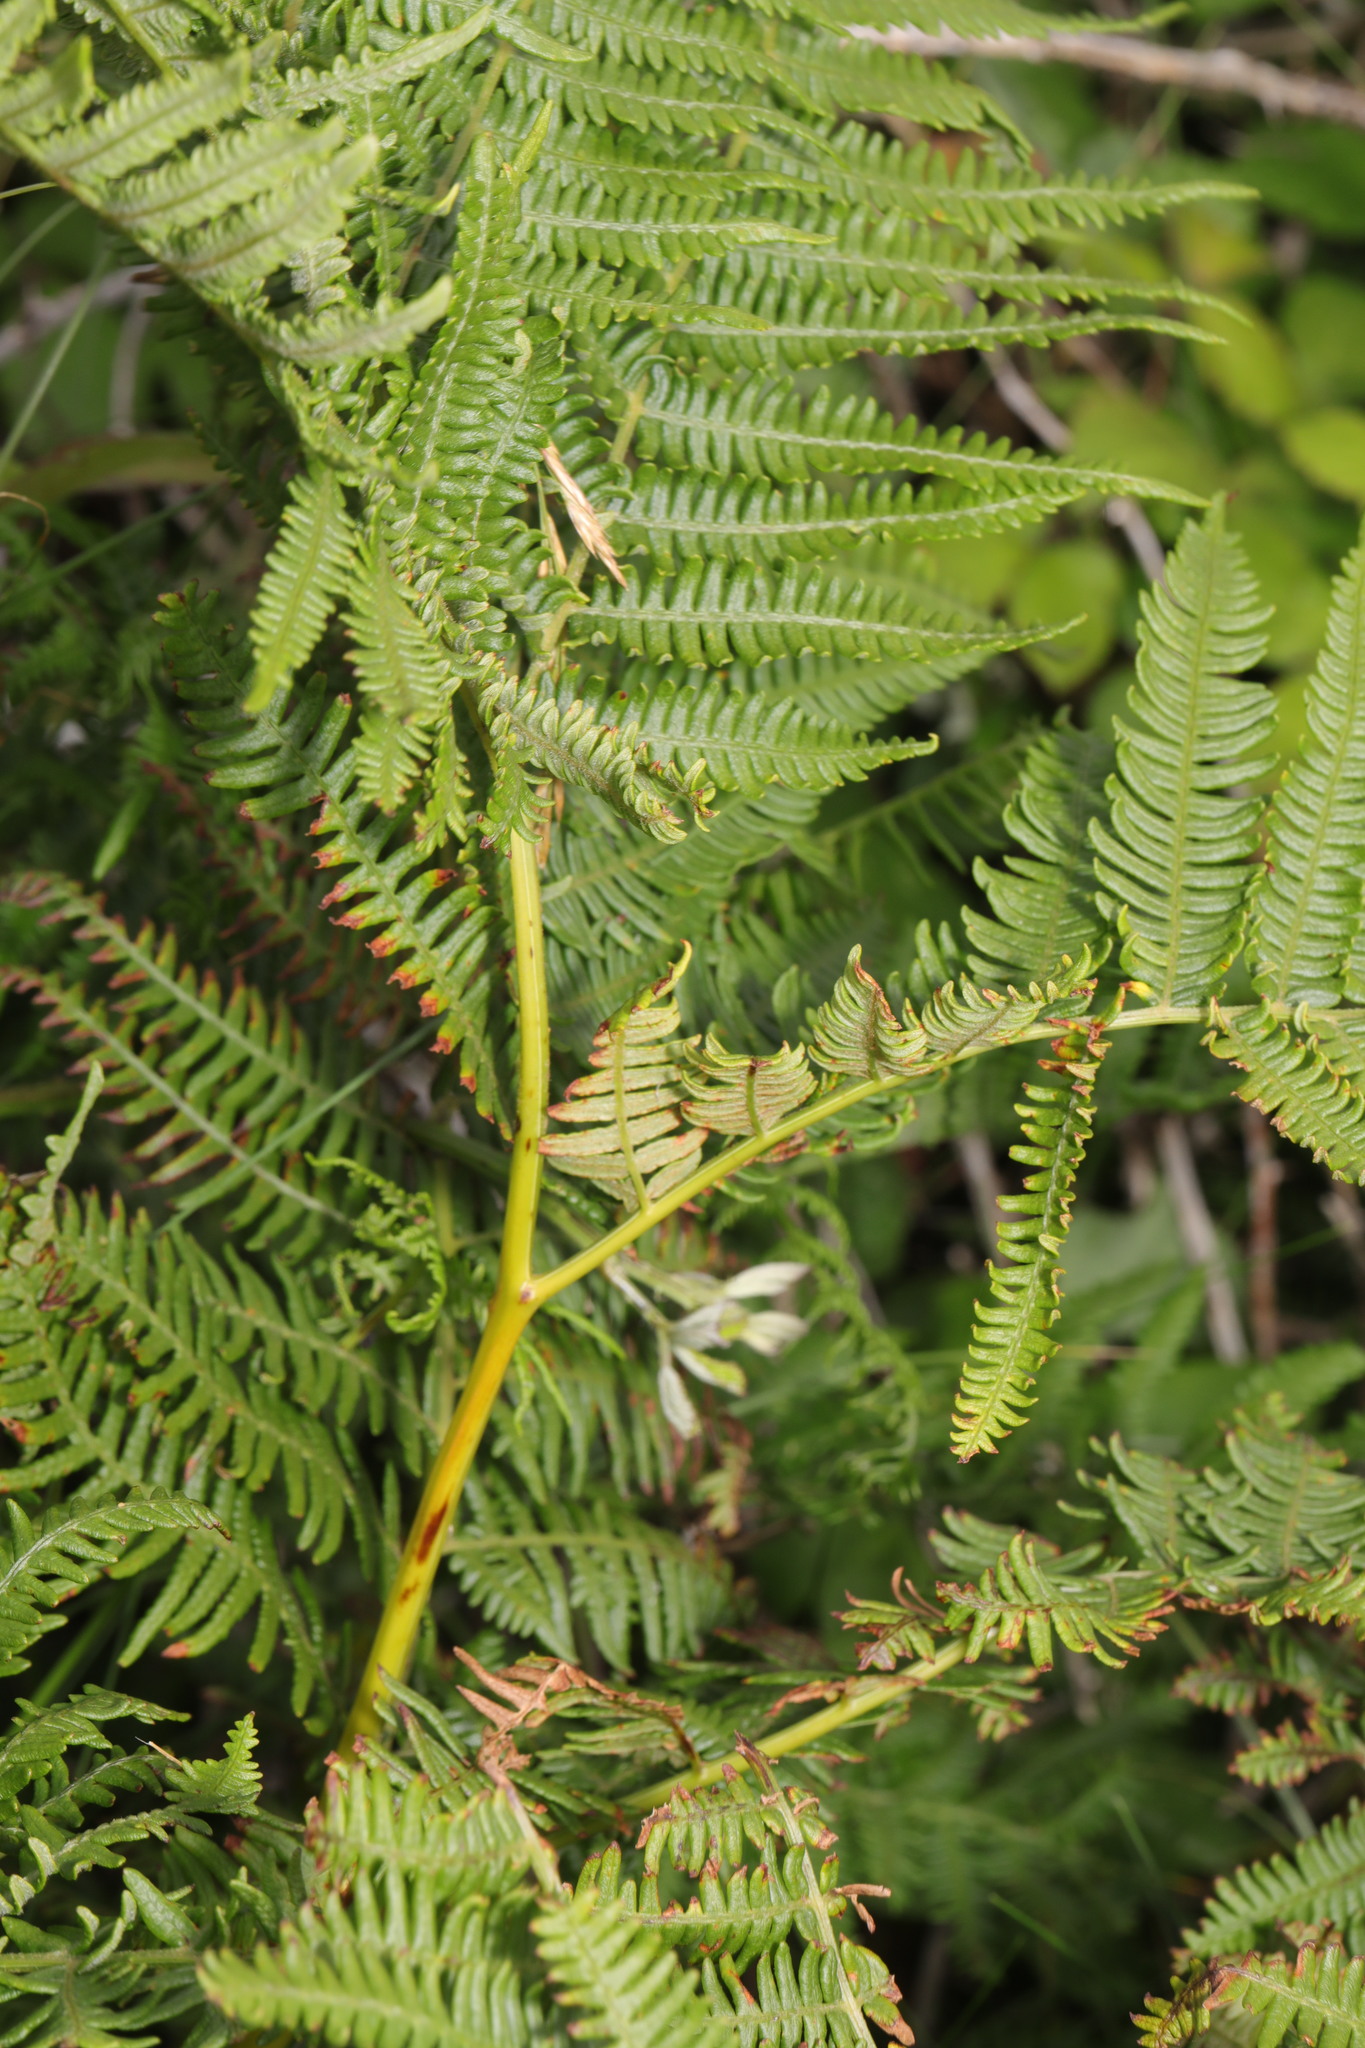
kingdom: Plantae
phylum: Tracheophyta
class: Polypodiopsida
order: Polypodiales
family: Dennstaedtiaceae
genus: Pteridium
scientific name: Pteridium aquilinum
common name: Bracken
